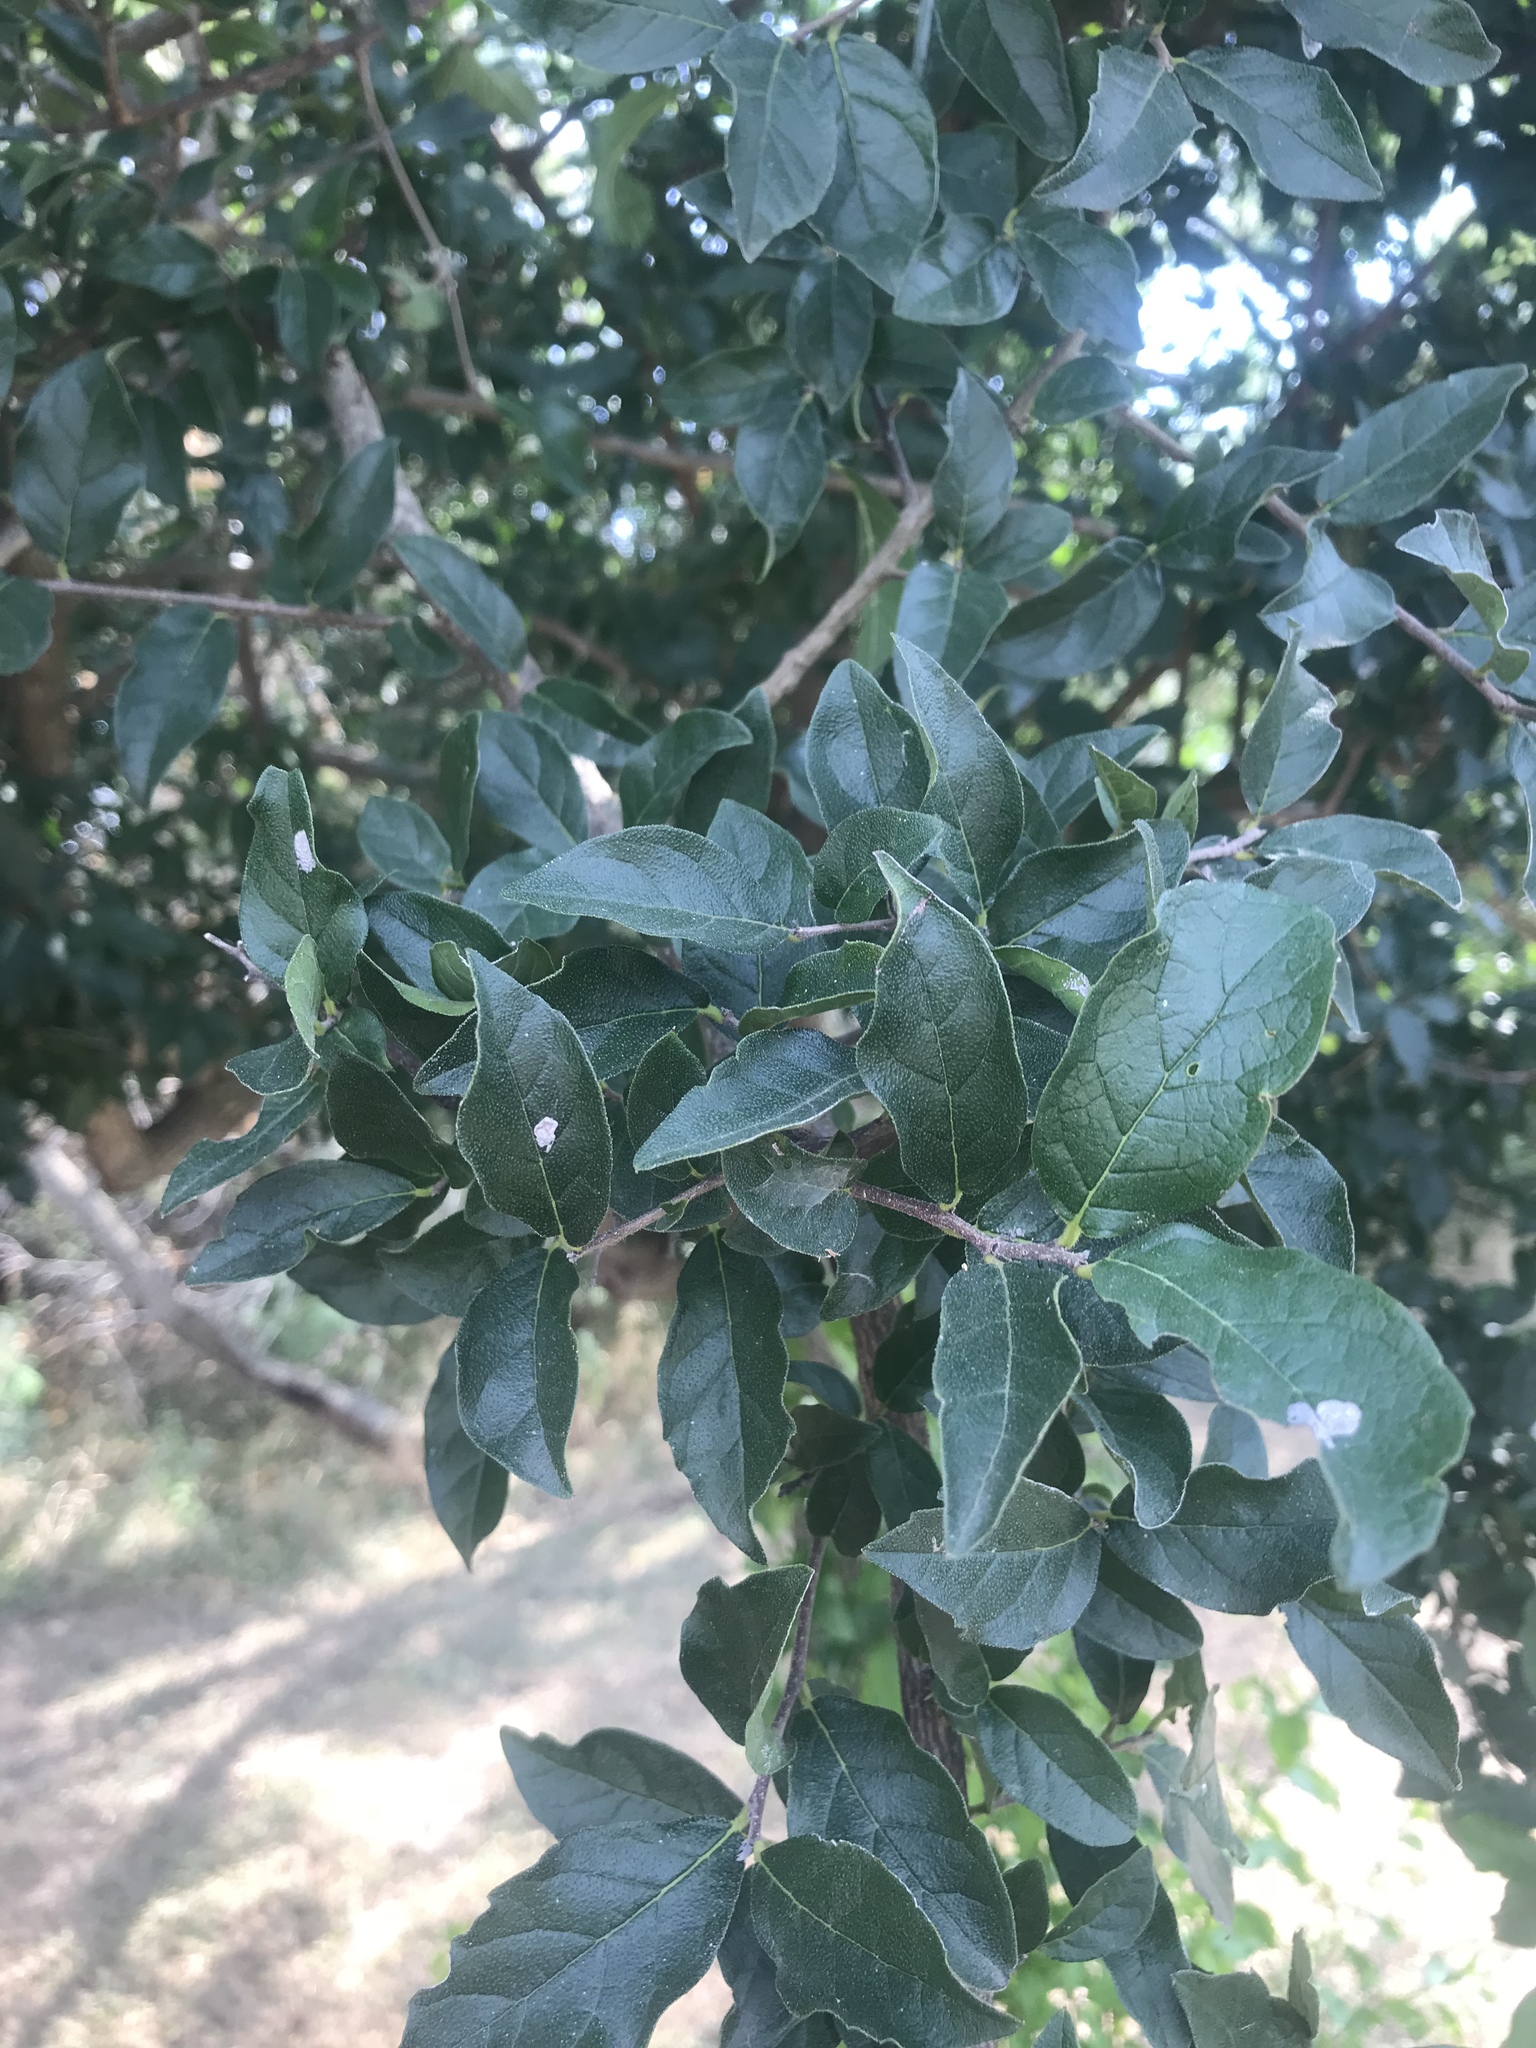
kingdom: Plantae
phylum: Tracheophyta
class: Magnoliopsida
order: Boraginales
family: Ehretiaceae
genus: Ehretia
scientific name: Ehretia anacua
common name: Sugarberry
